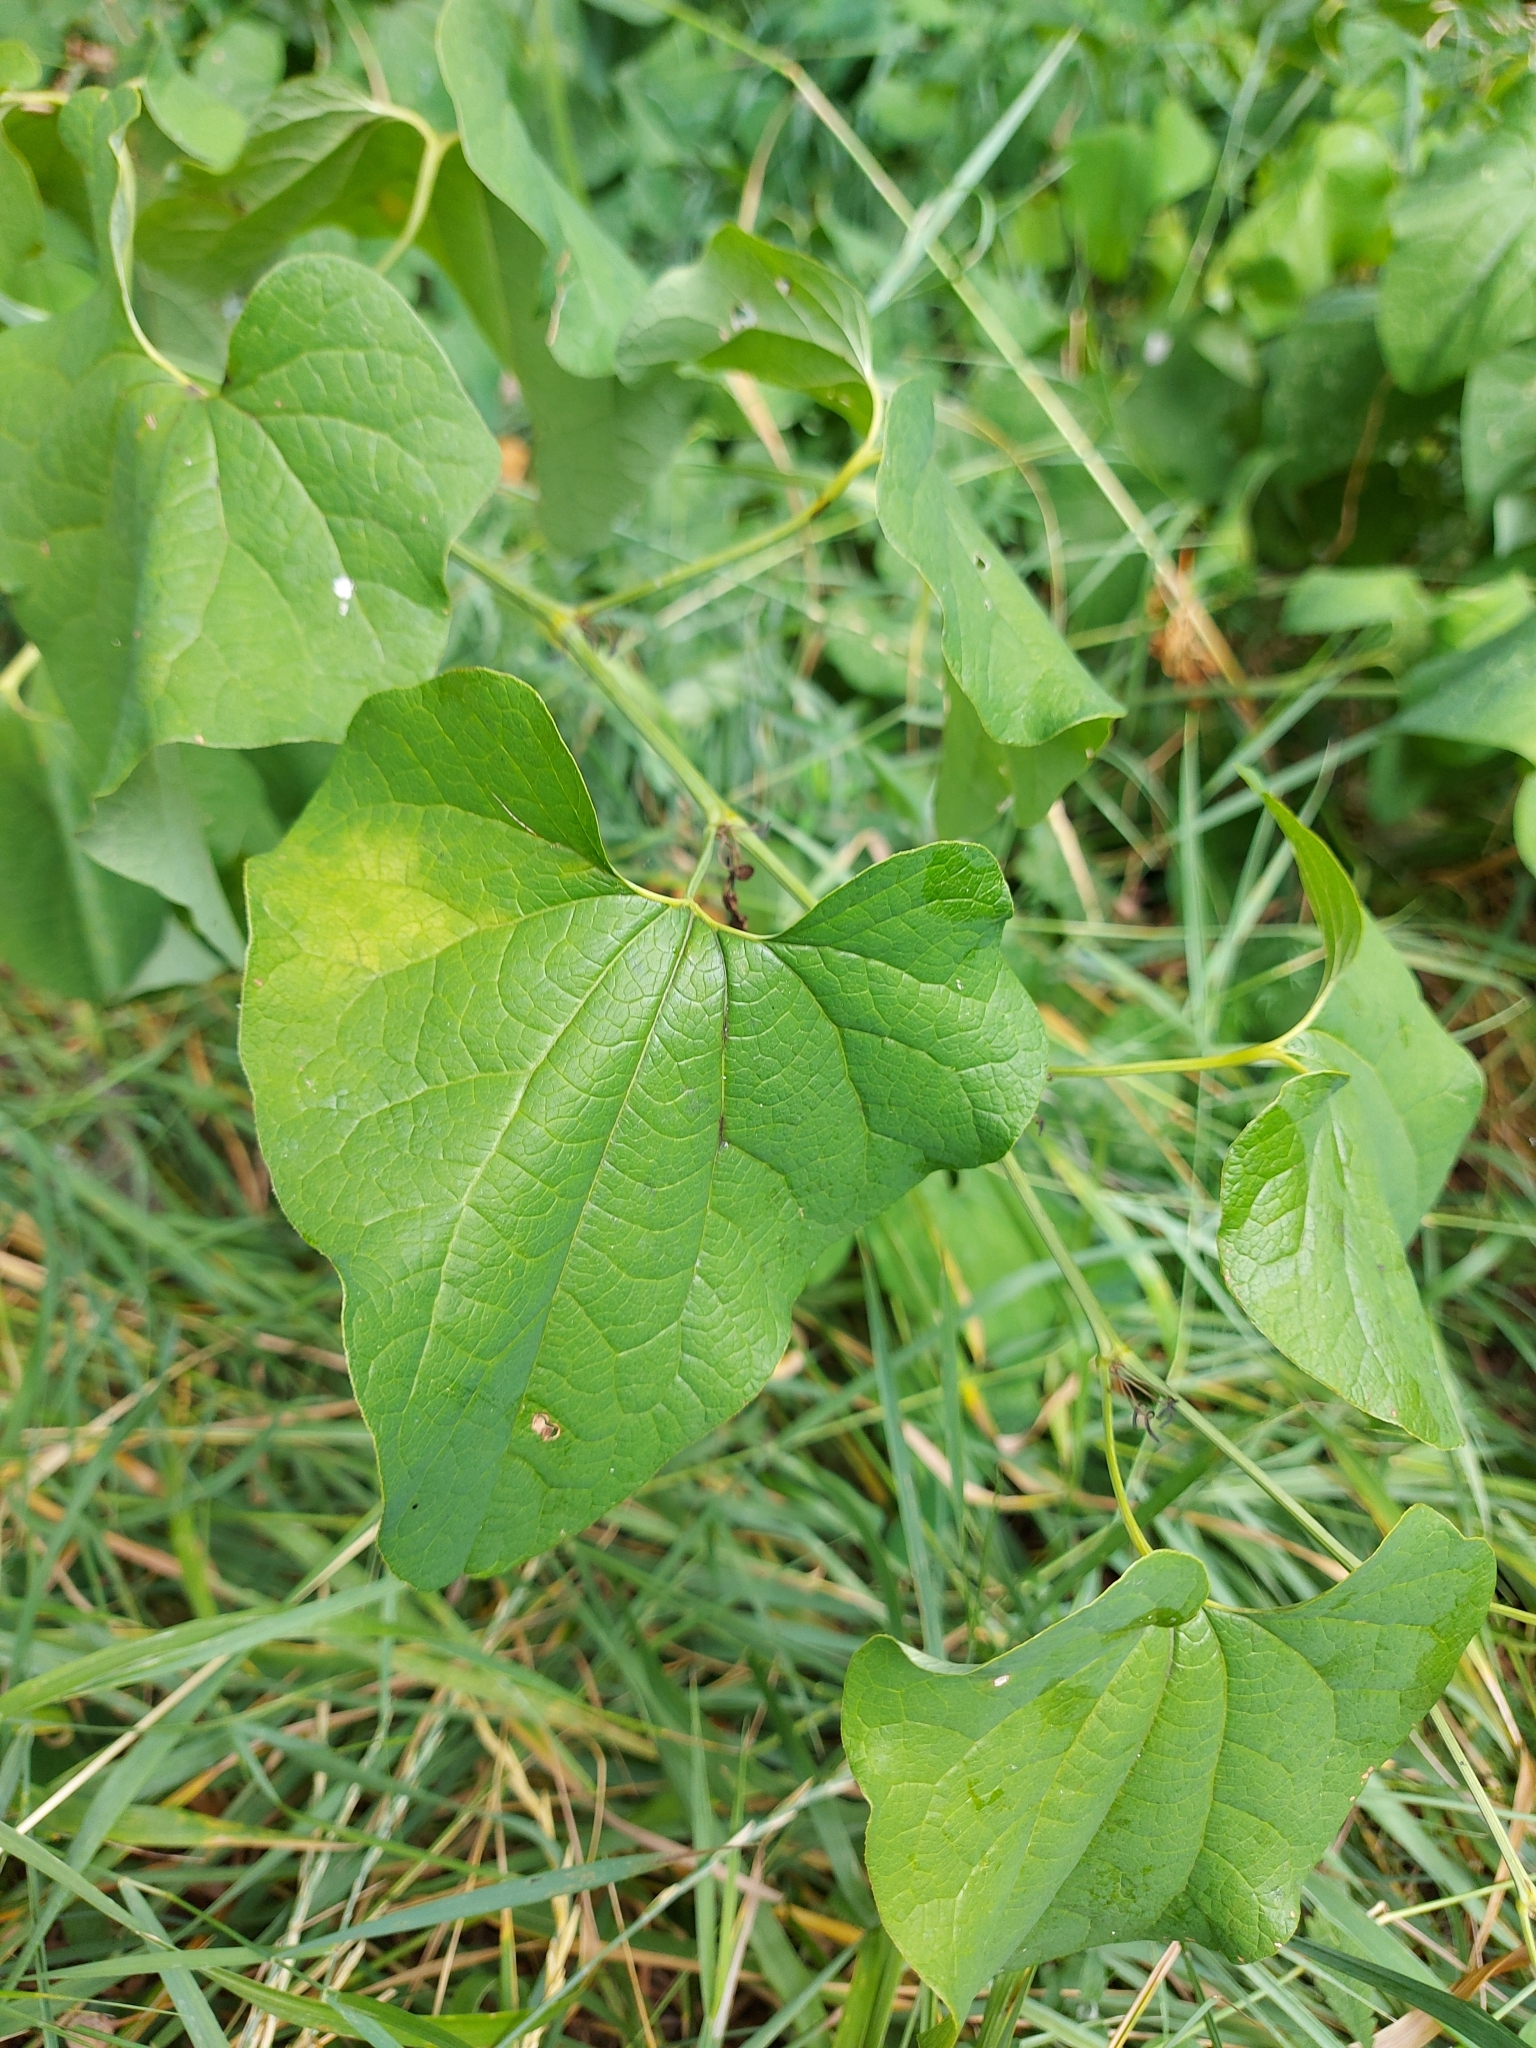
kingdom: Plantae
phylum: Tracheophyta
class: Magnoliopsida
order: Piperales
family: Aristolochiaceae
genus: Aristolochia
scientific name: Aristolochia clematitis
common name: Birthwort
